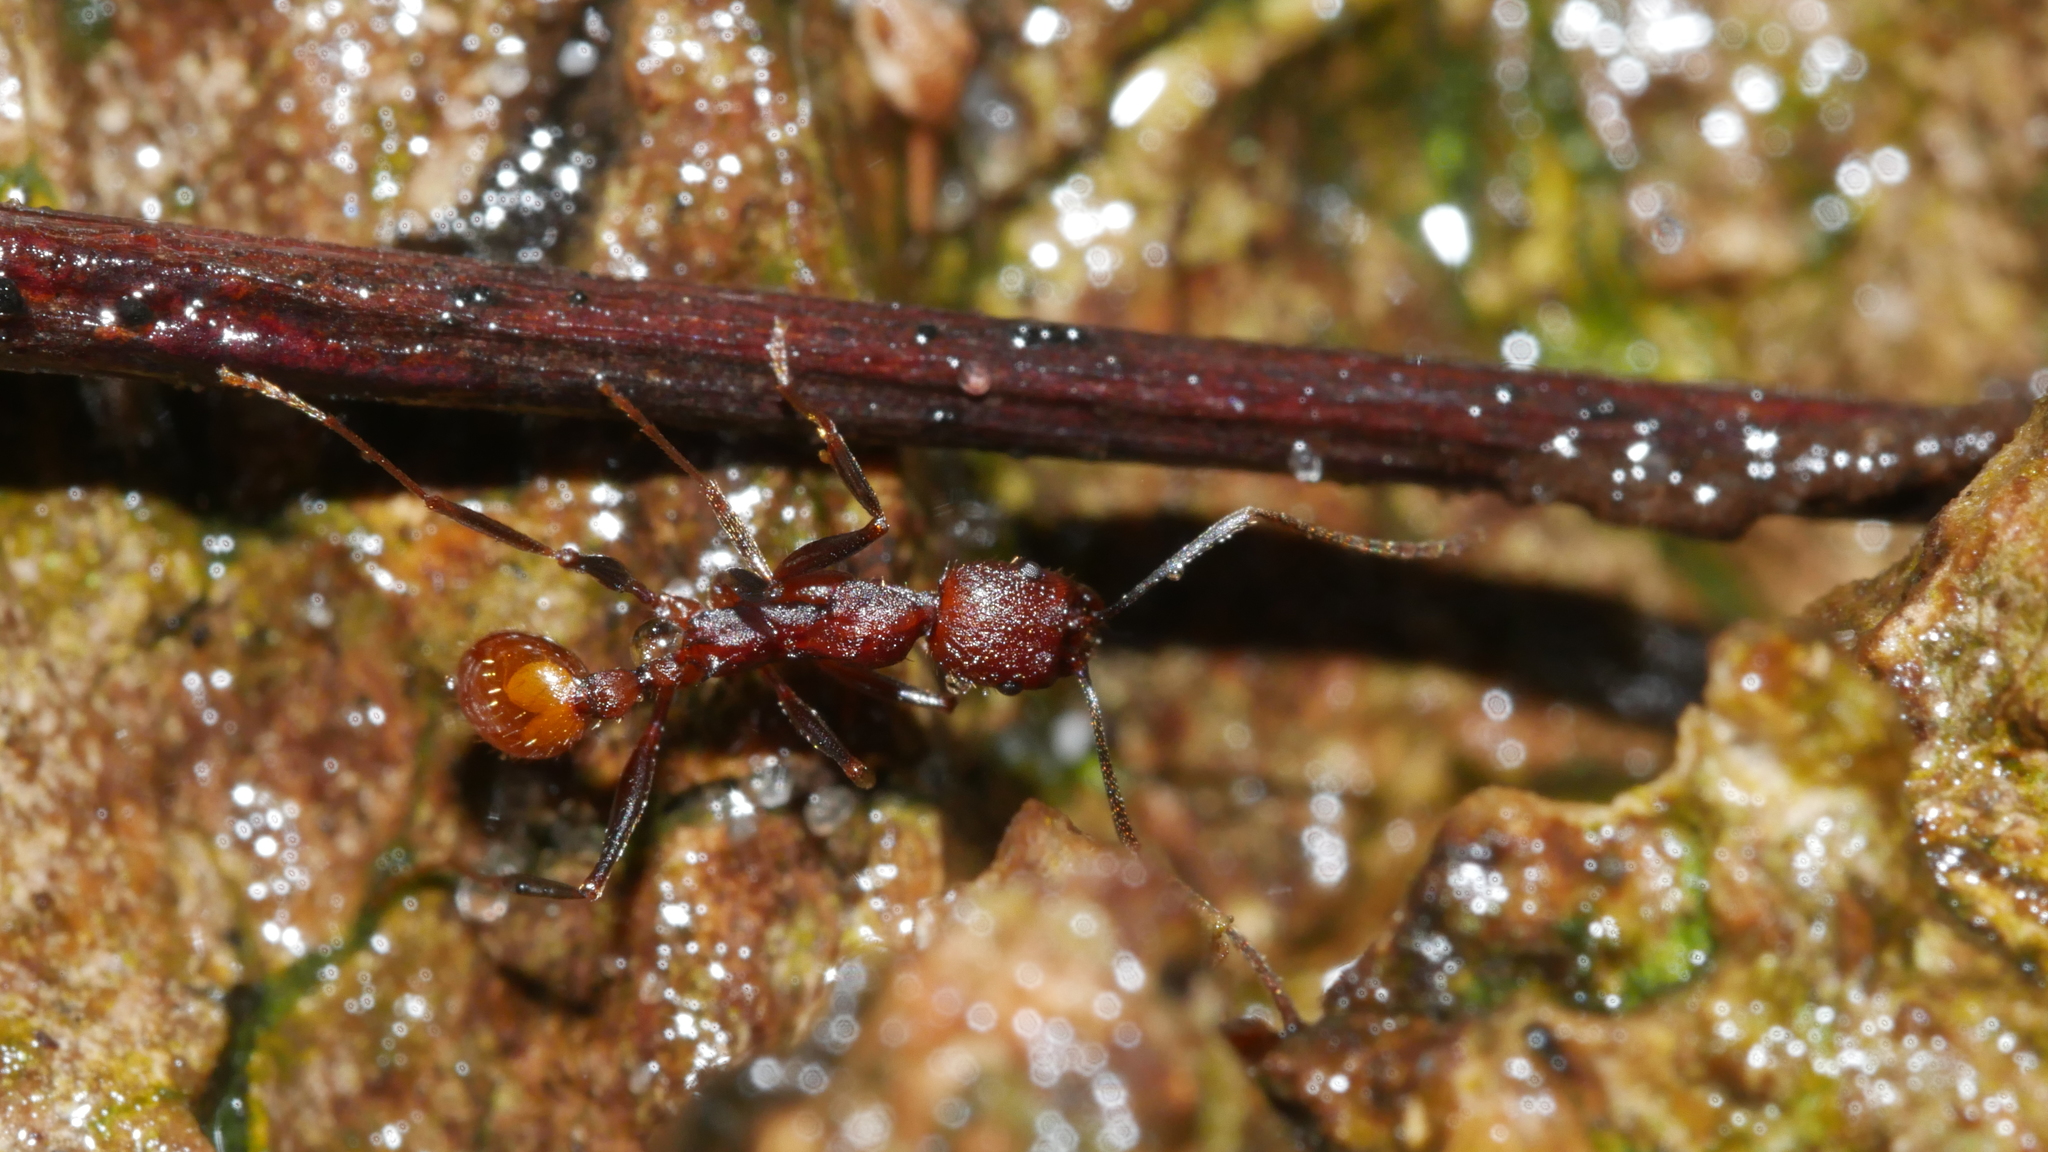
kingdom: Animalia
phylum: Arthropoda
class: Insecta
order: Hymenoptera
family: Formicidae
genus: Aphaenogaster
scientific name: Aphaenogaster lamellidens
